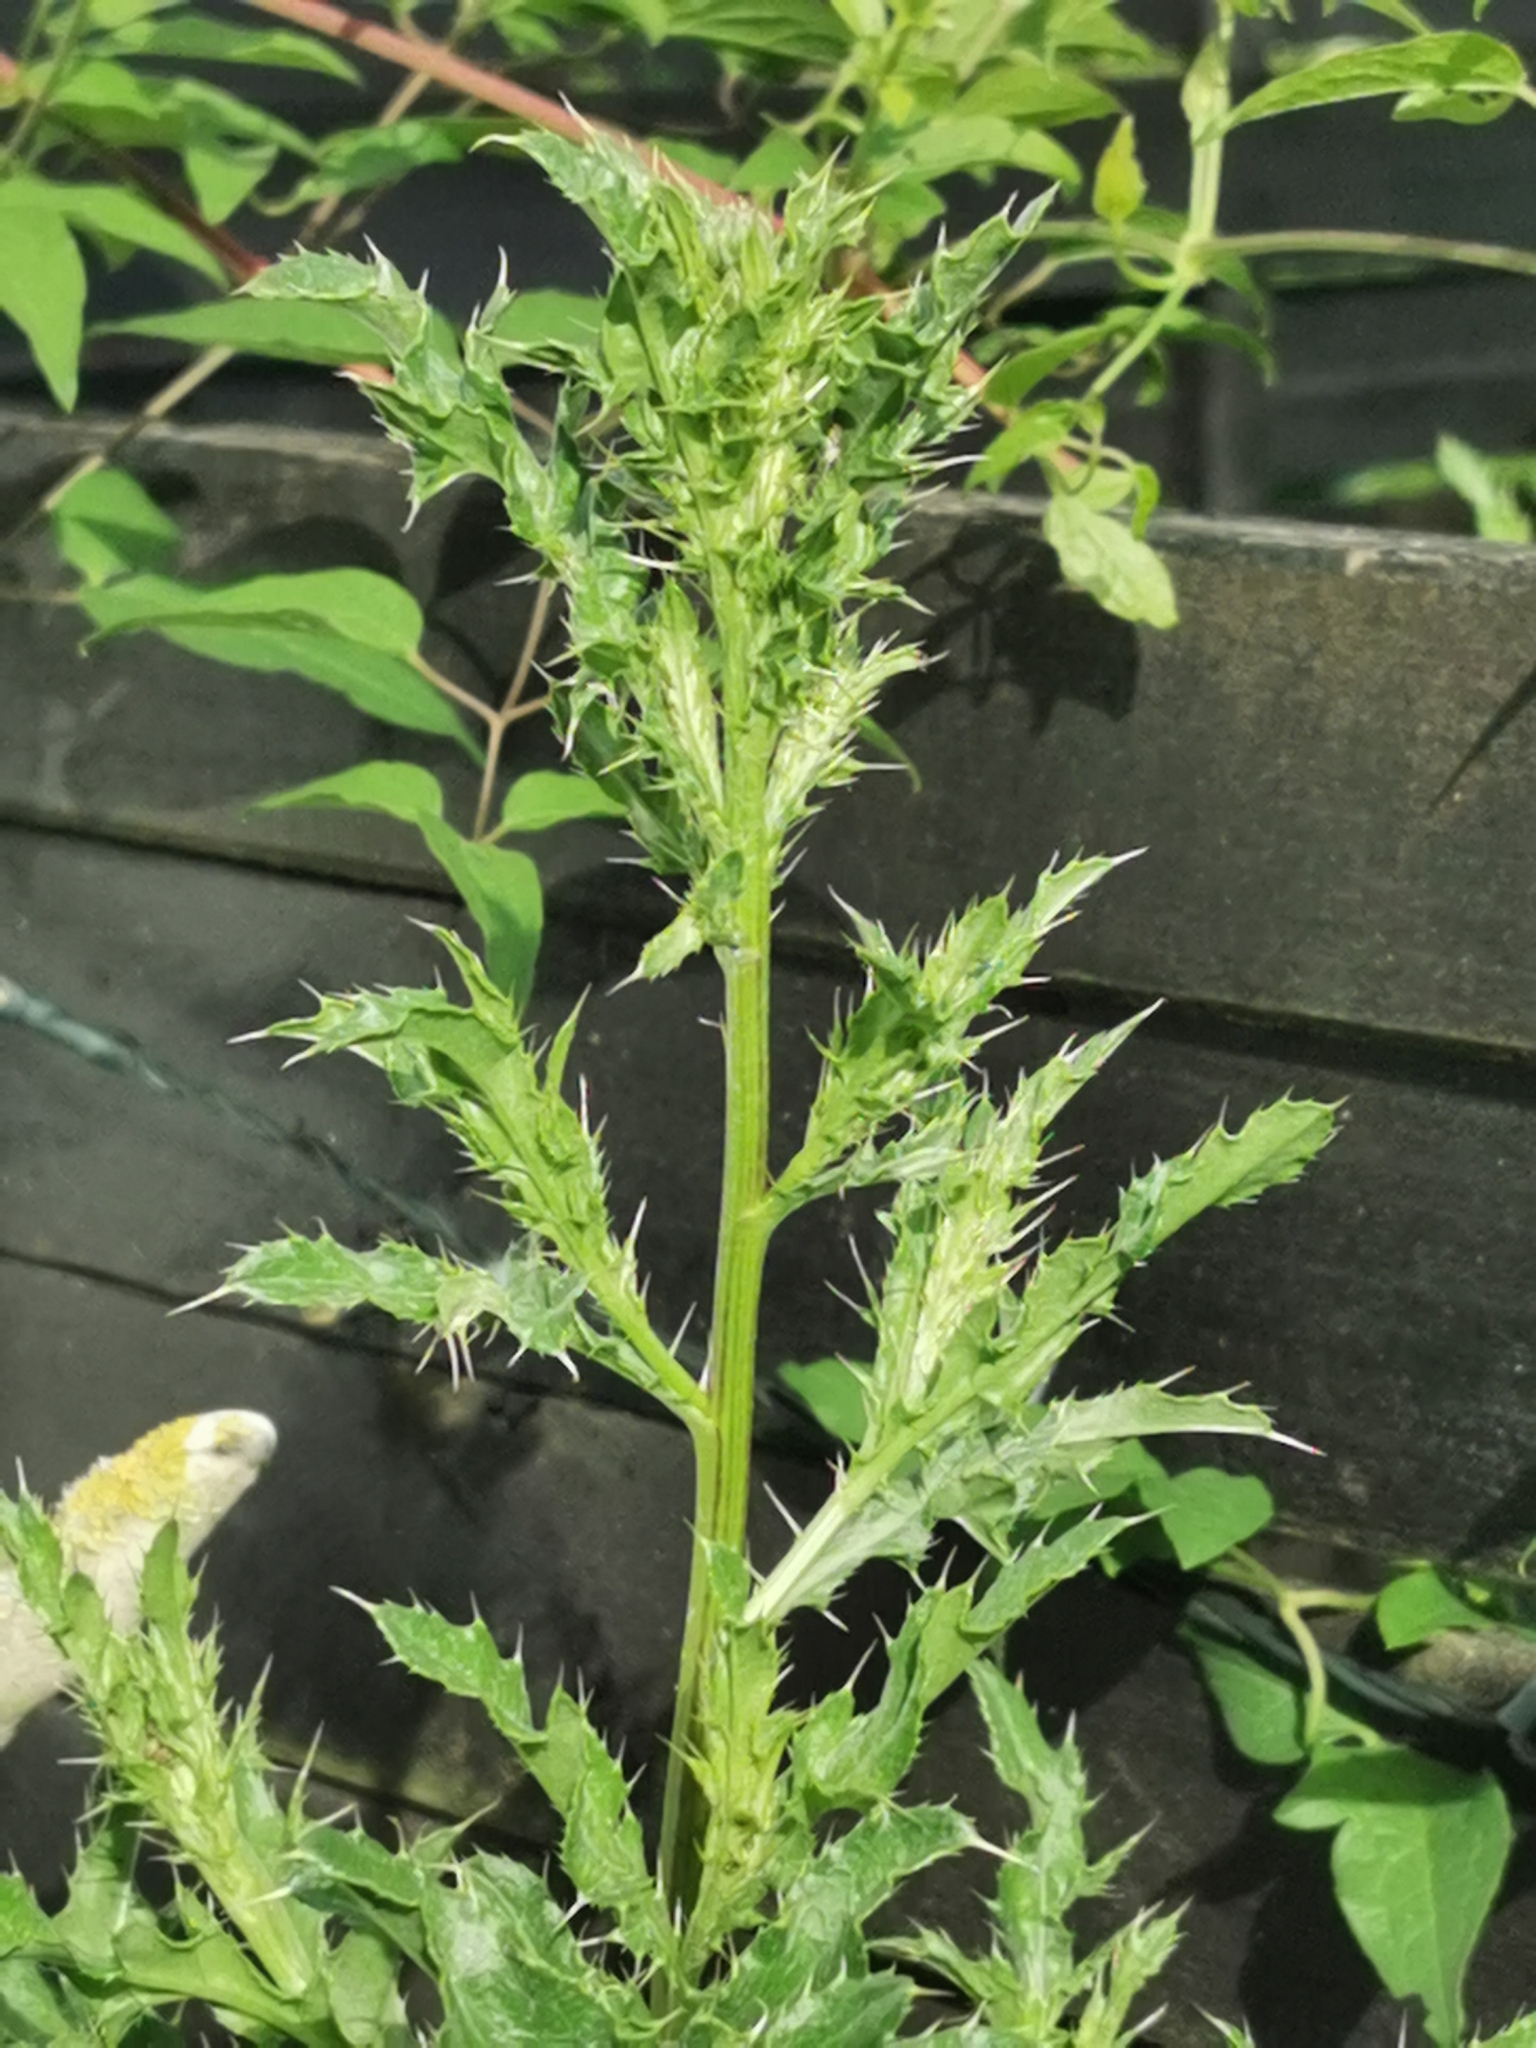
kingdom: Plantae
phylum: Tracheophyta
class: Magnoliopsida
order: Asterales
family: Asteraceae
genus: Cirsium
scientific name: Cirsium arvense
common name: Creeping thistle
